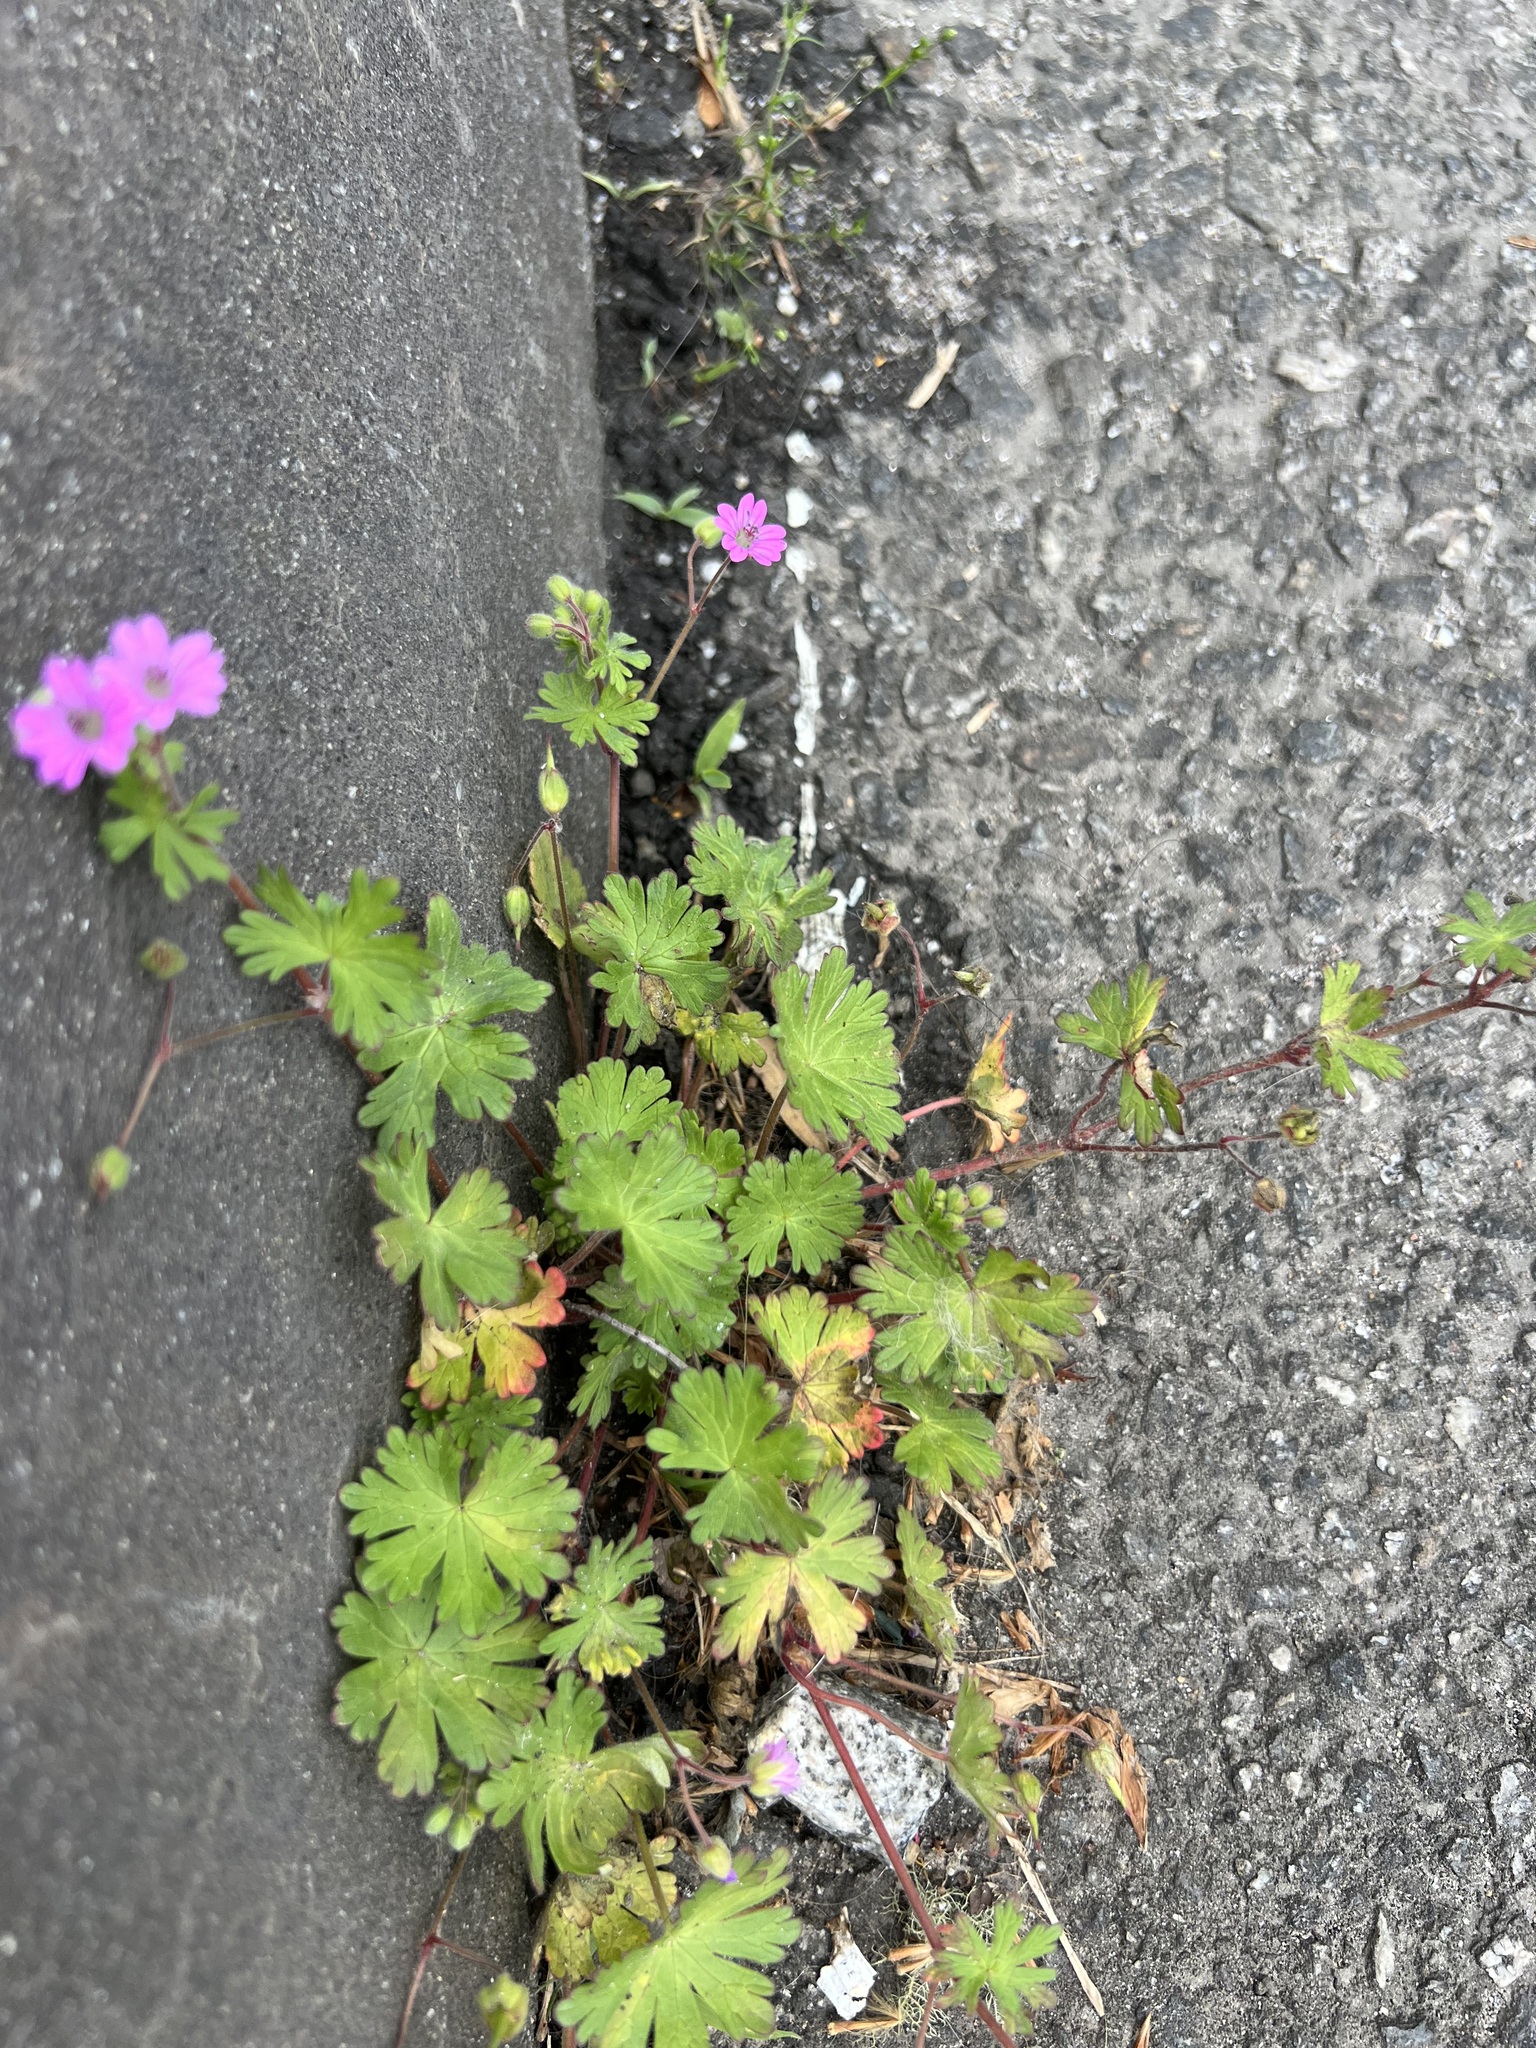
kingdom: Plantae
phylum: Tracheophyta
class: Magnoliopsida
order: Geraniales
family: Geraniaceae
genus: Geranium
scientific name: Geranium molle
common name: Dove's-foot crane's-bill
